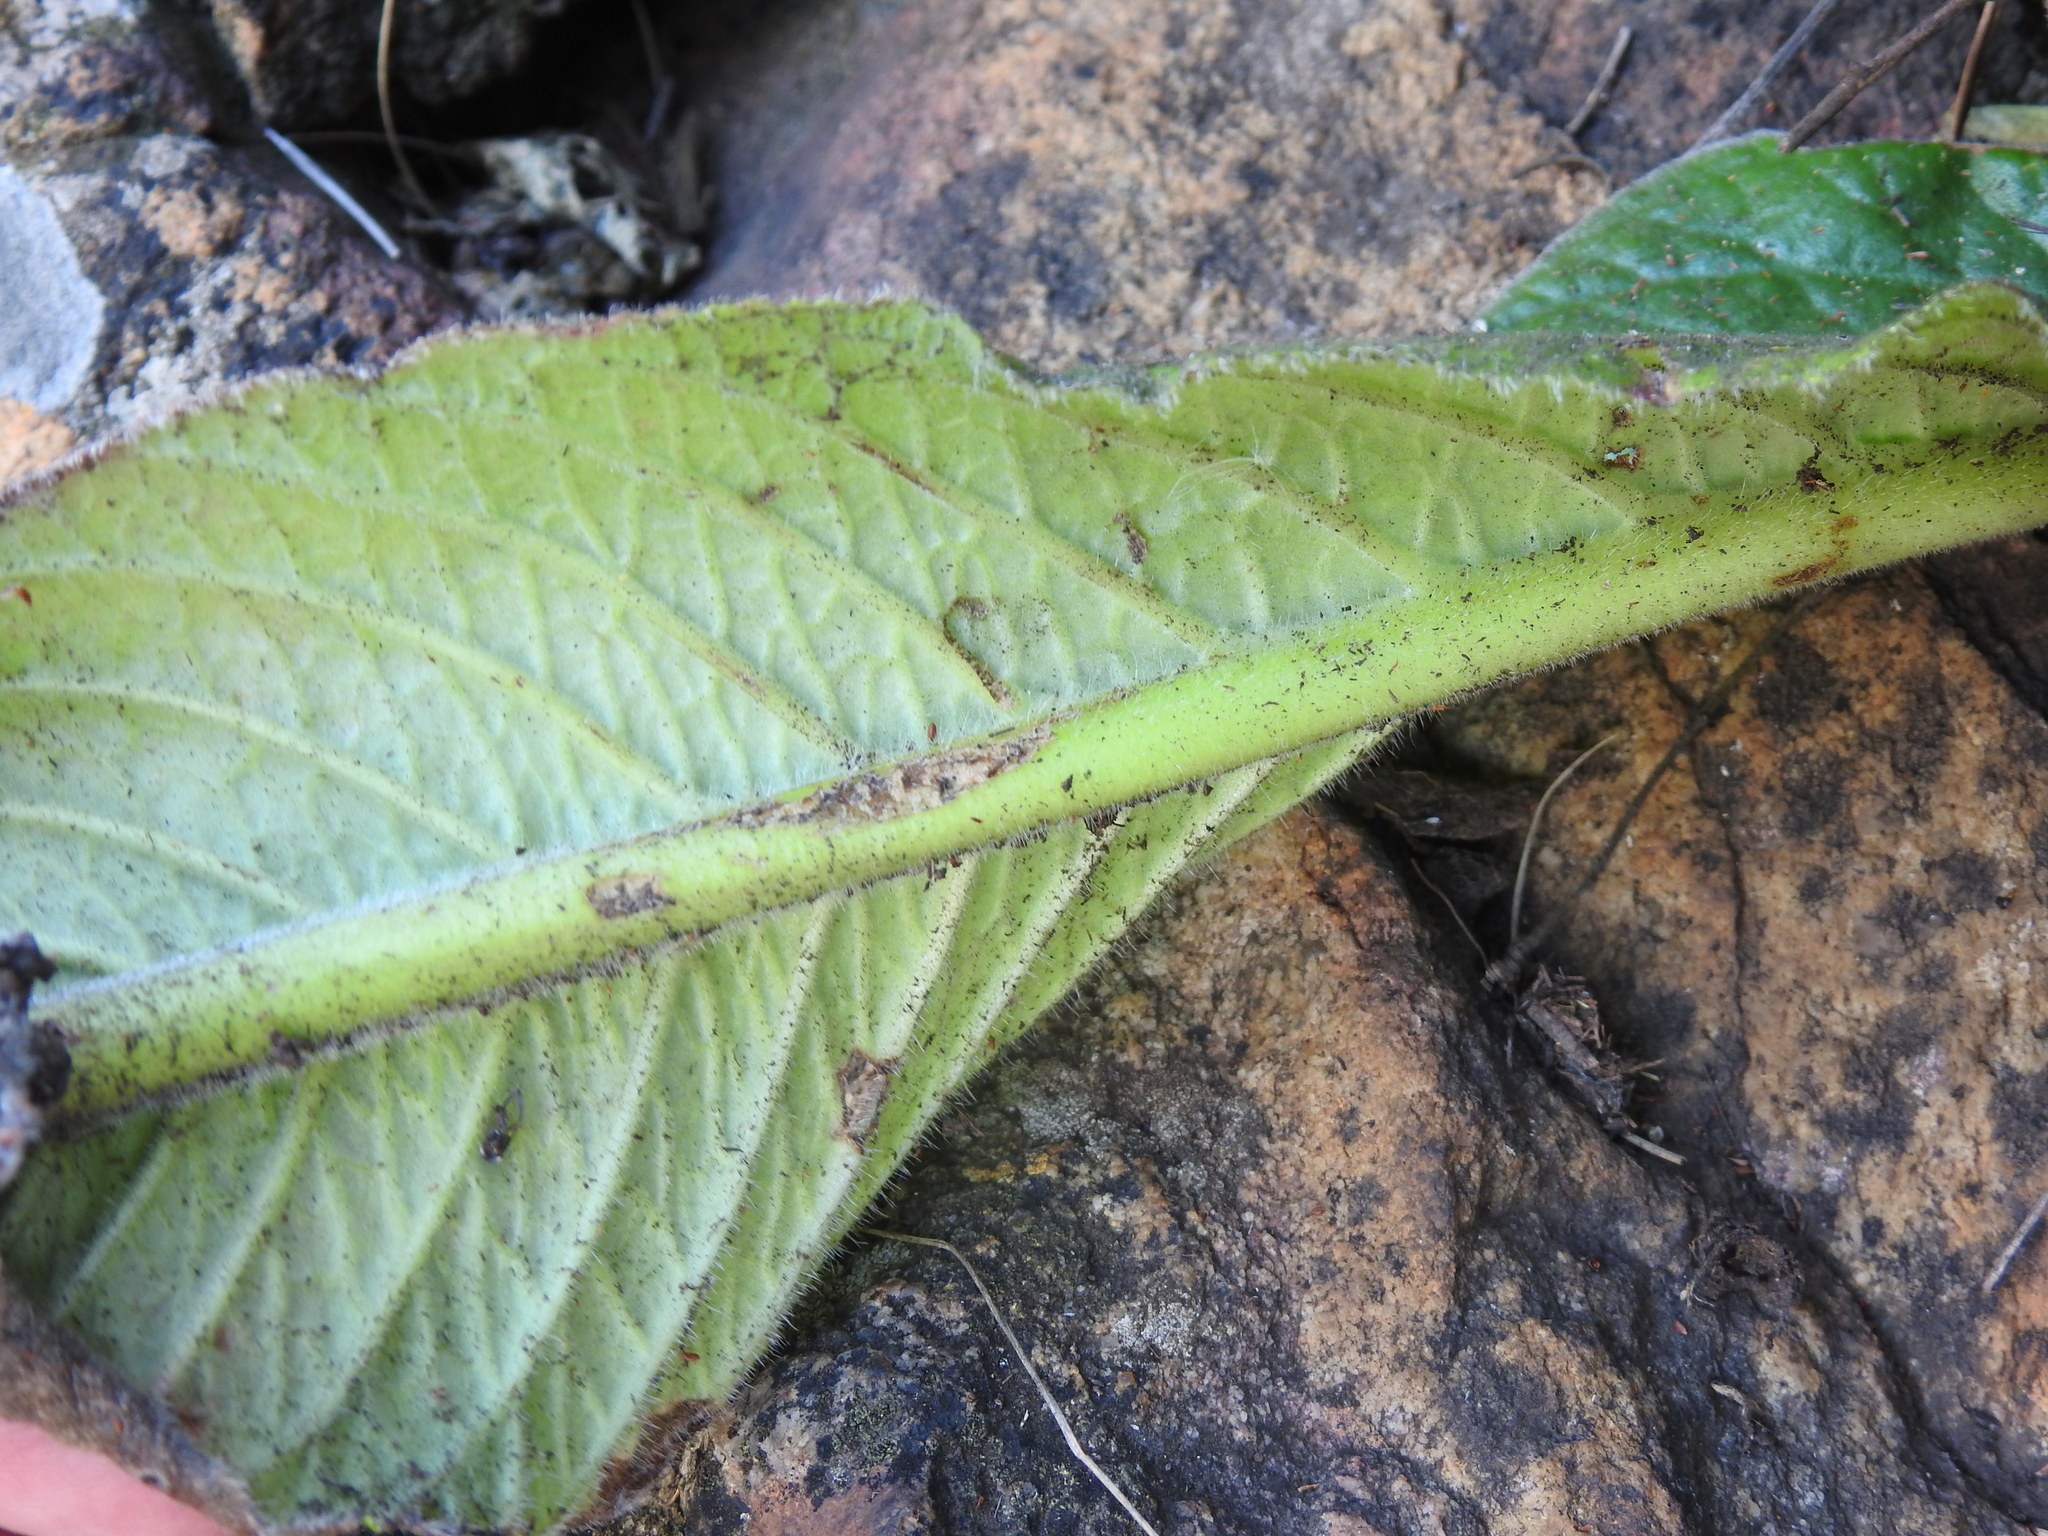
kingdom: Plantae
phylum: Tracheophyta
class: Magnoliopsida
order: Lamiales
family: Gesneriaceae
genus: Streptocarpus
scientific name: Streptocarpus vandeleurii
